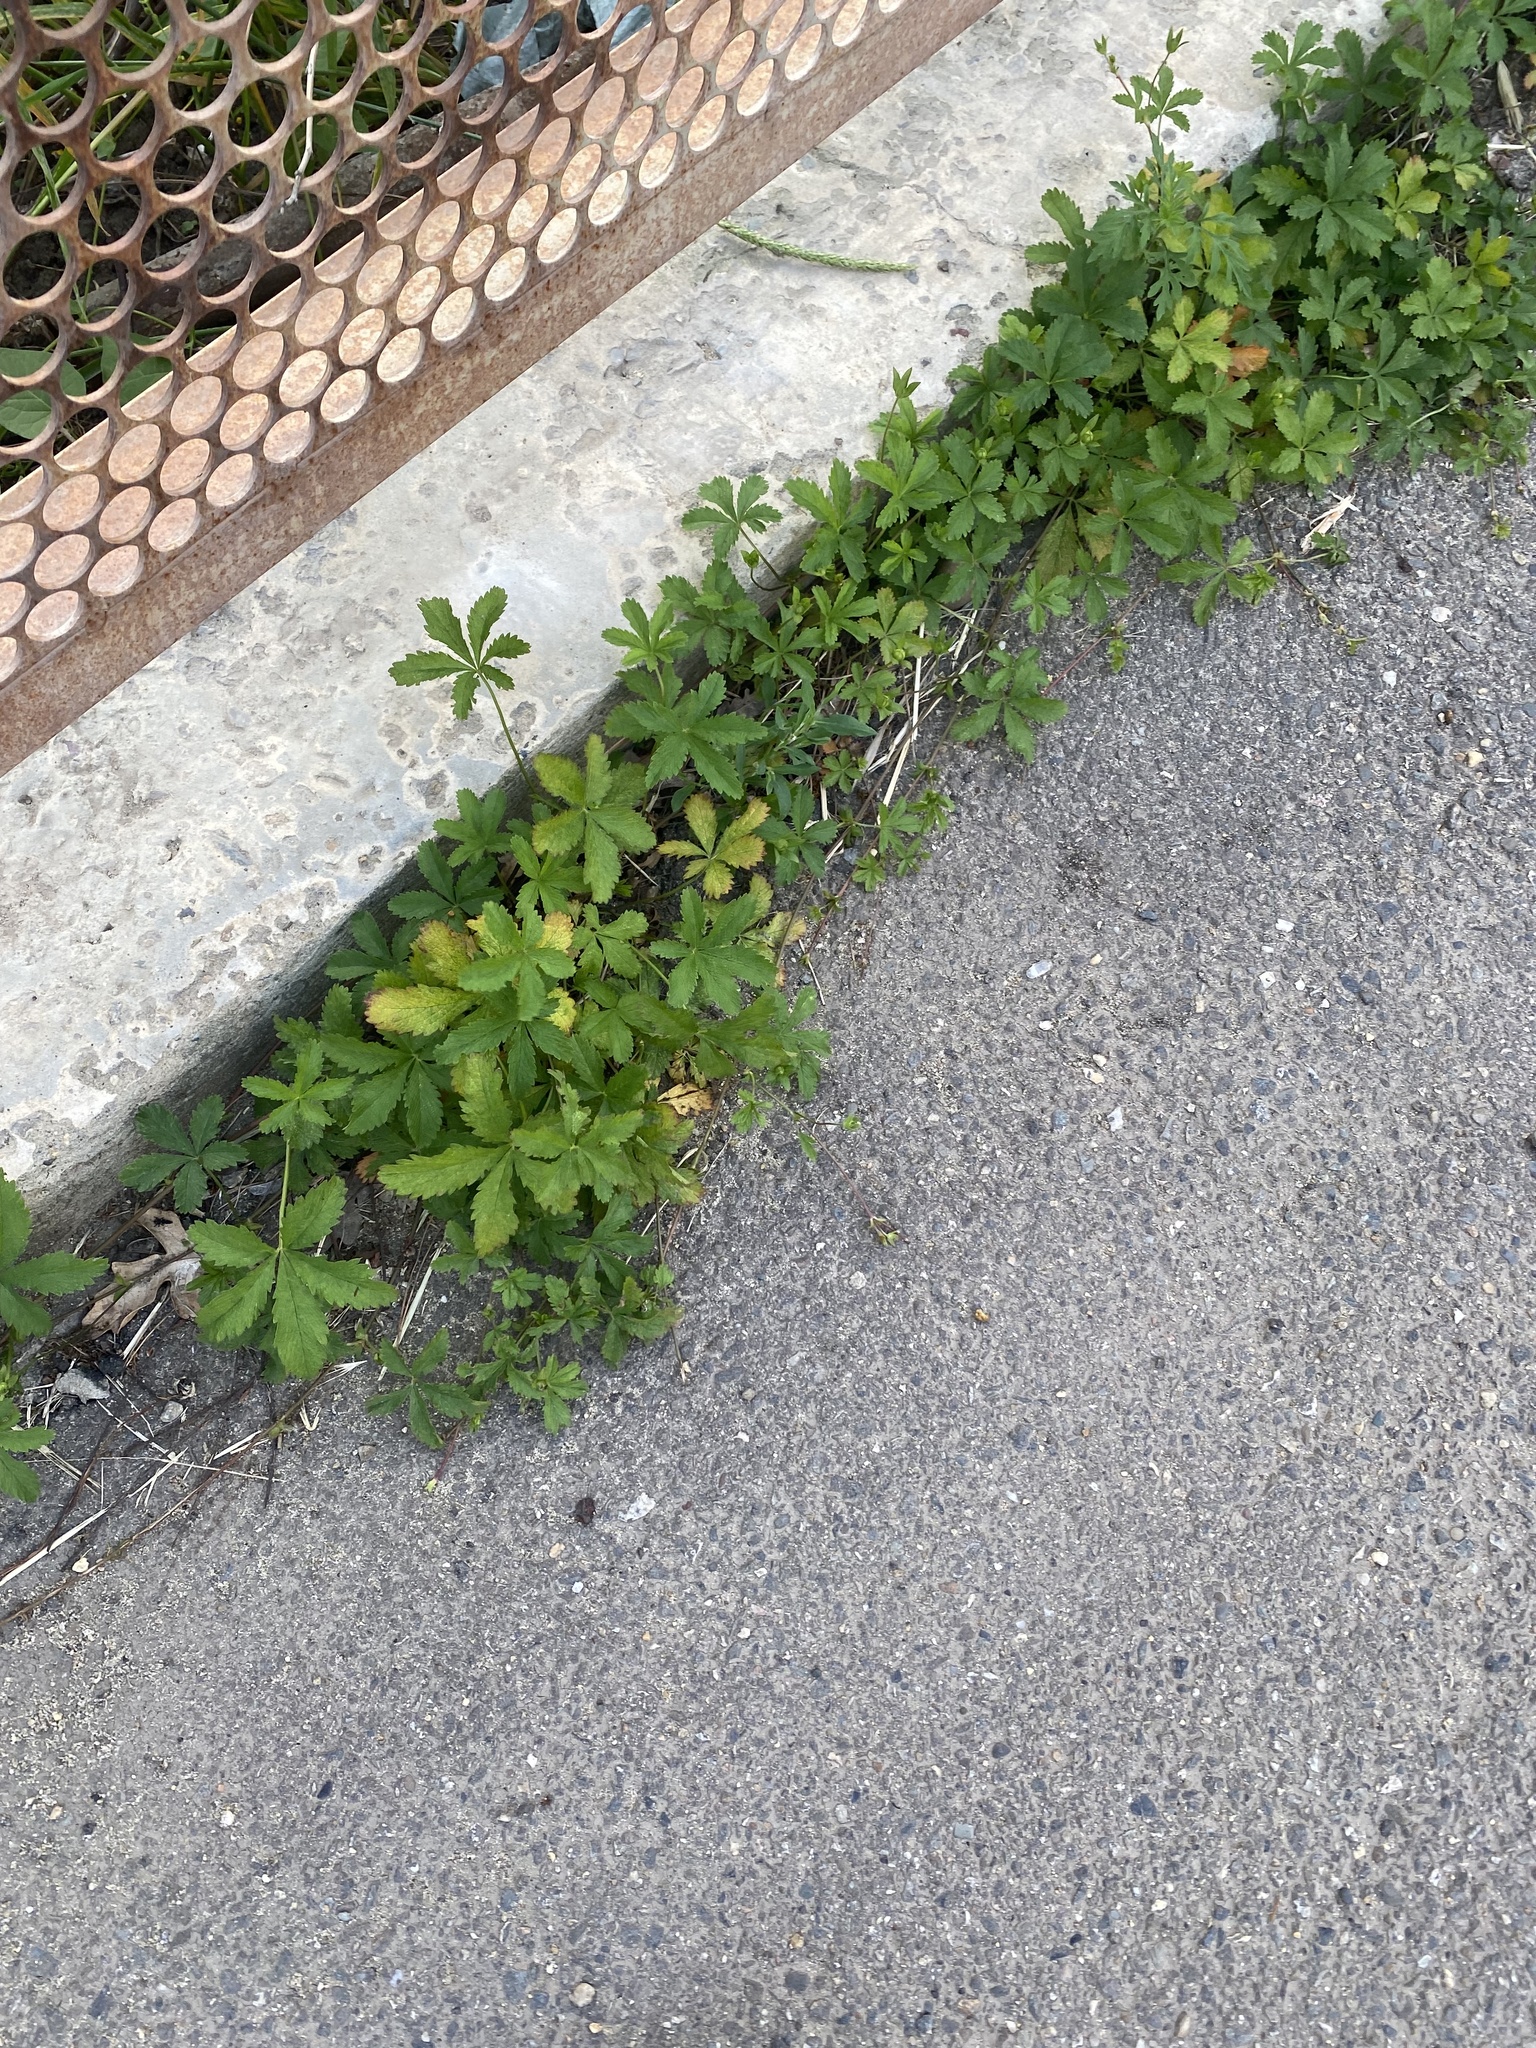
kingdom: Plantae
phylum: Tracheophyta
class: Magnoliopsida
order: Rosales
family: Rosaceae
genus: Potentilla
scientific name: Potentilla reptans
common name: Creeping cinquefoil
